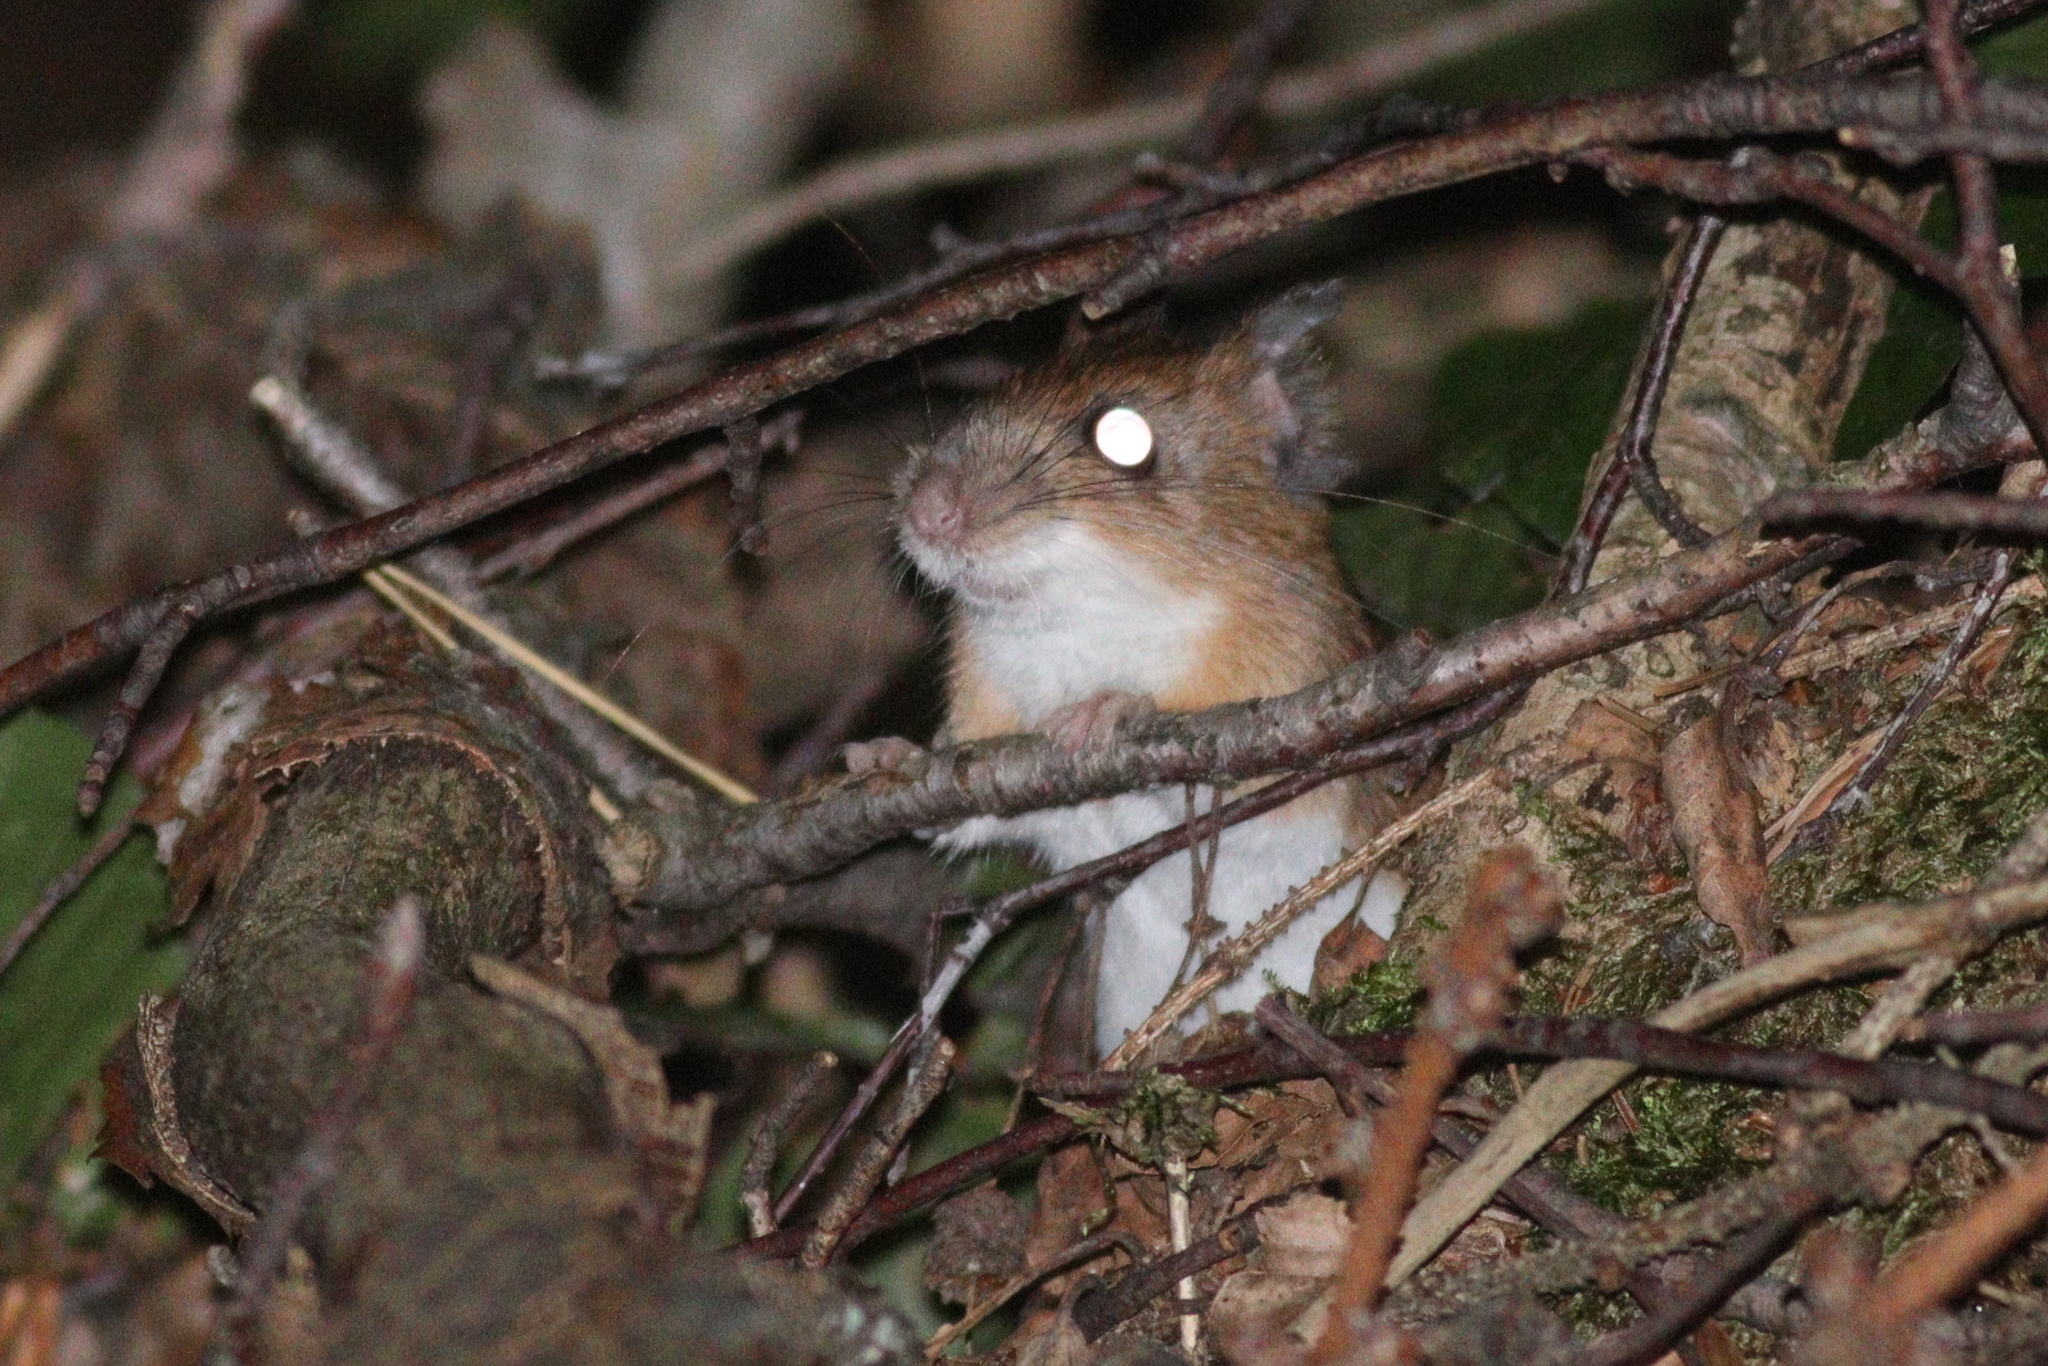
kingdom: Animalia
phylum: Chordata
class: Mammalia
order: Rodentia
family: Muridae
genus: Apodemus
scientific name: Apodemus flavicollis
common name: Yellow-necked field mouse
